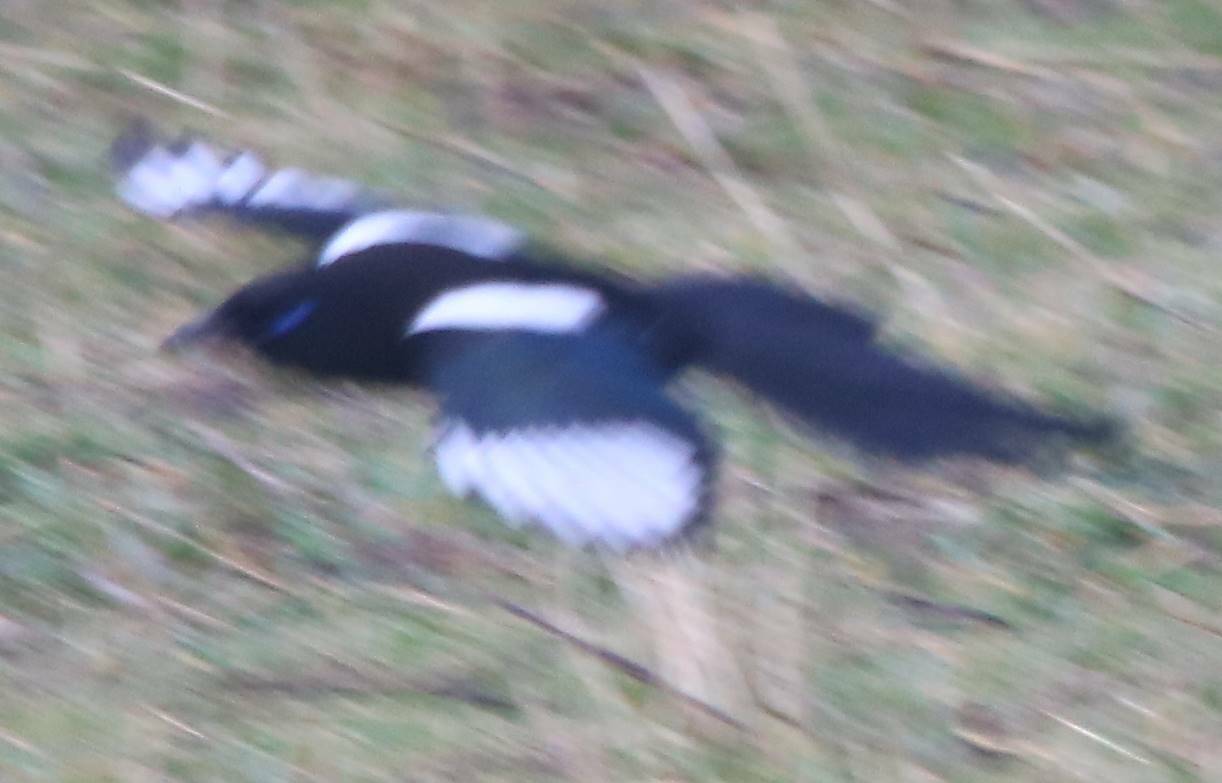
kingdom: Animalia
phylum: Chordata
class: Aves
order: Passeriformes
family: Corvidae
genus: Pica
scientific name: Pica mauritanica
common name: Maghreb magpie
